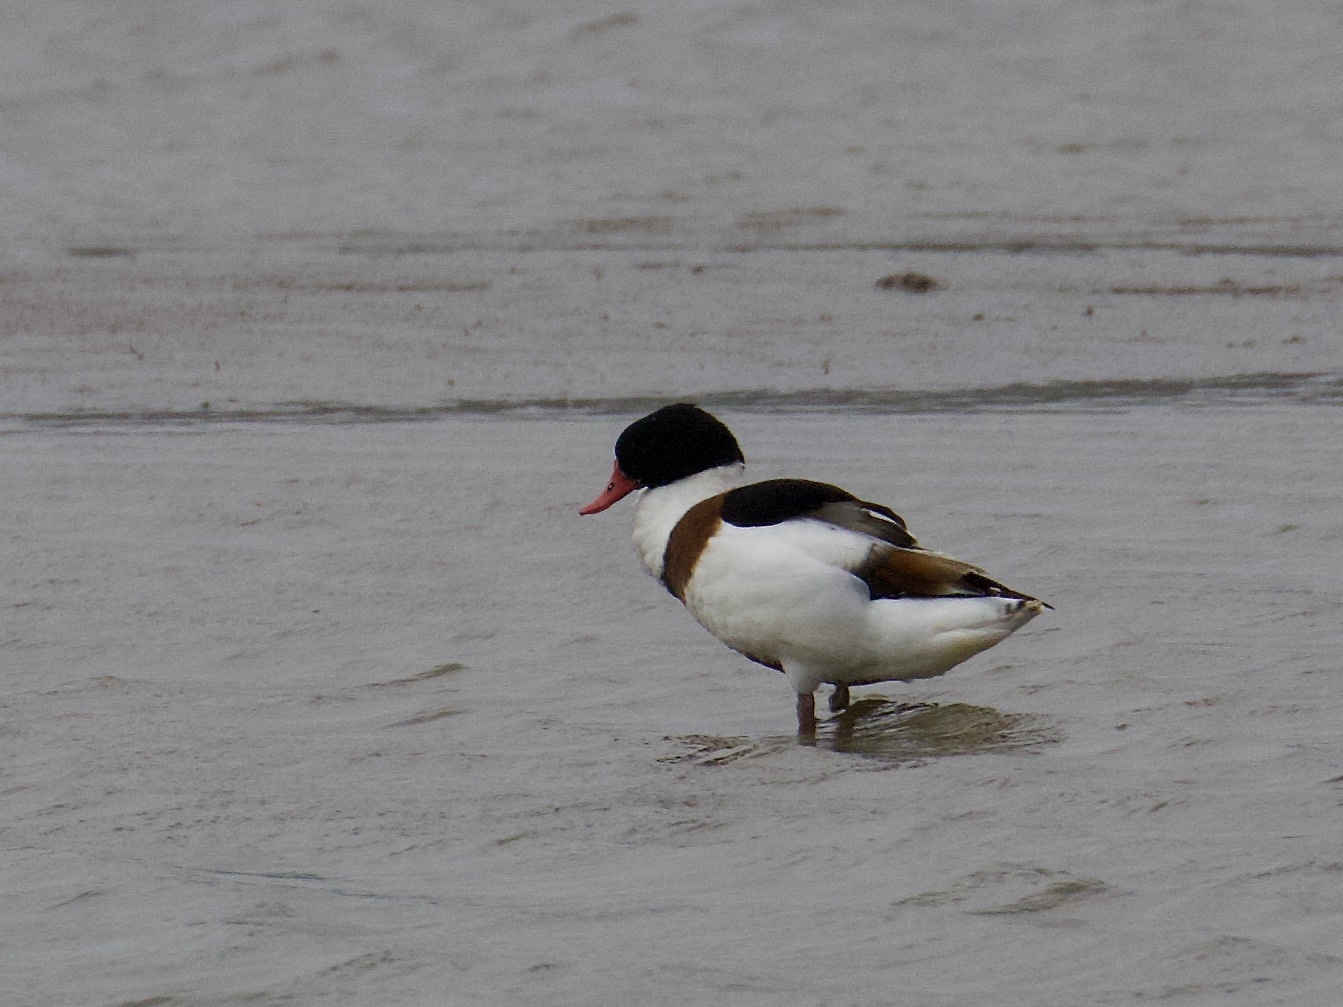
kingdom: Animalia
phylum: Chordata
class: Aves
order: Anseriformes
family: Anatidae
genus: Tadorna
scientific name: Tadorna tadorna
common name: Common shelduck
